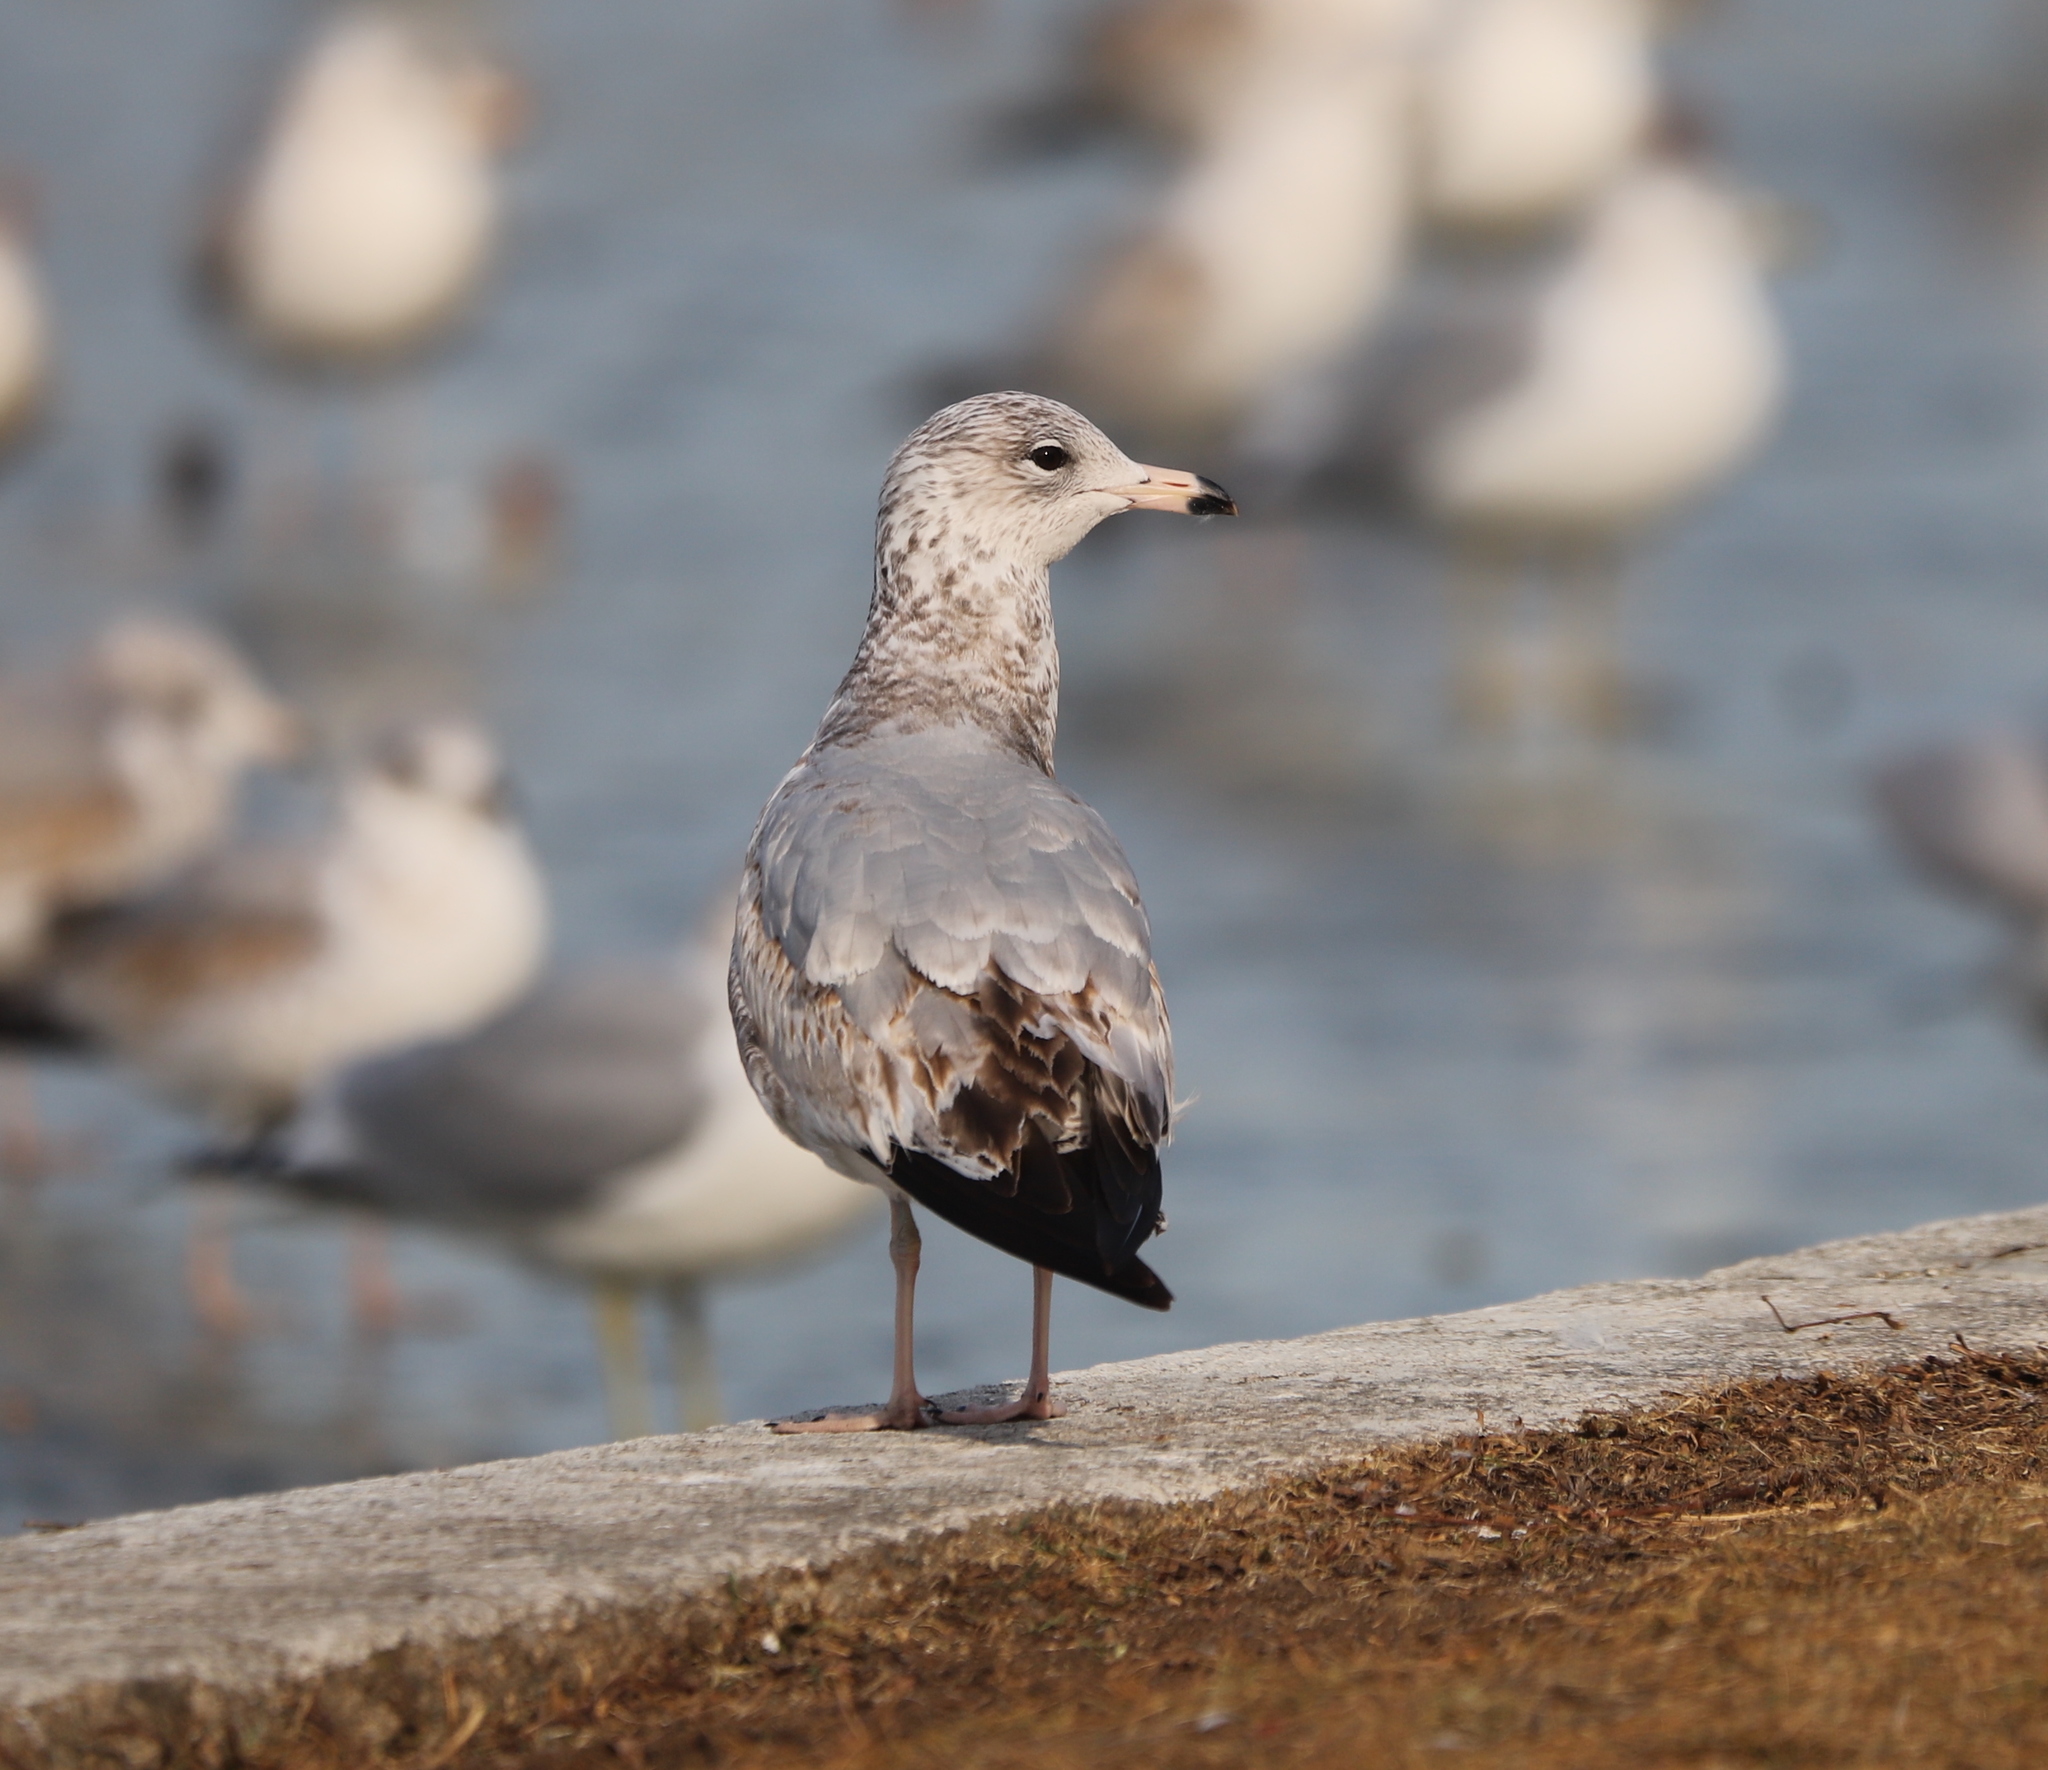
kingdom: Animalia
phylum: Chordata
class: Aves
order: Charadriiformes
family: Laridae
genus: Larus
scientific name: Larus delawarensis
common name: Ring-billed gull
